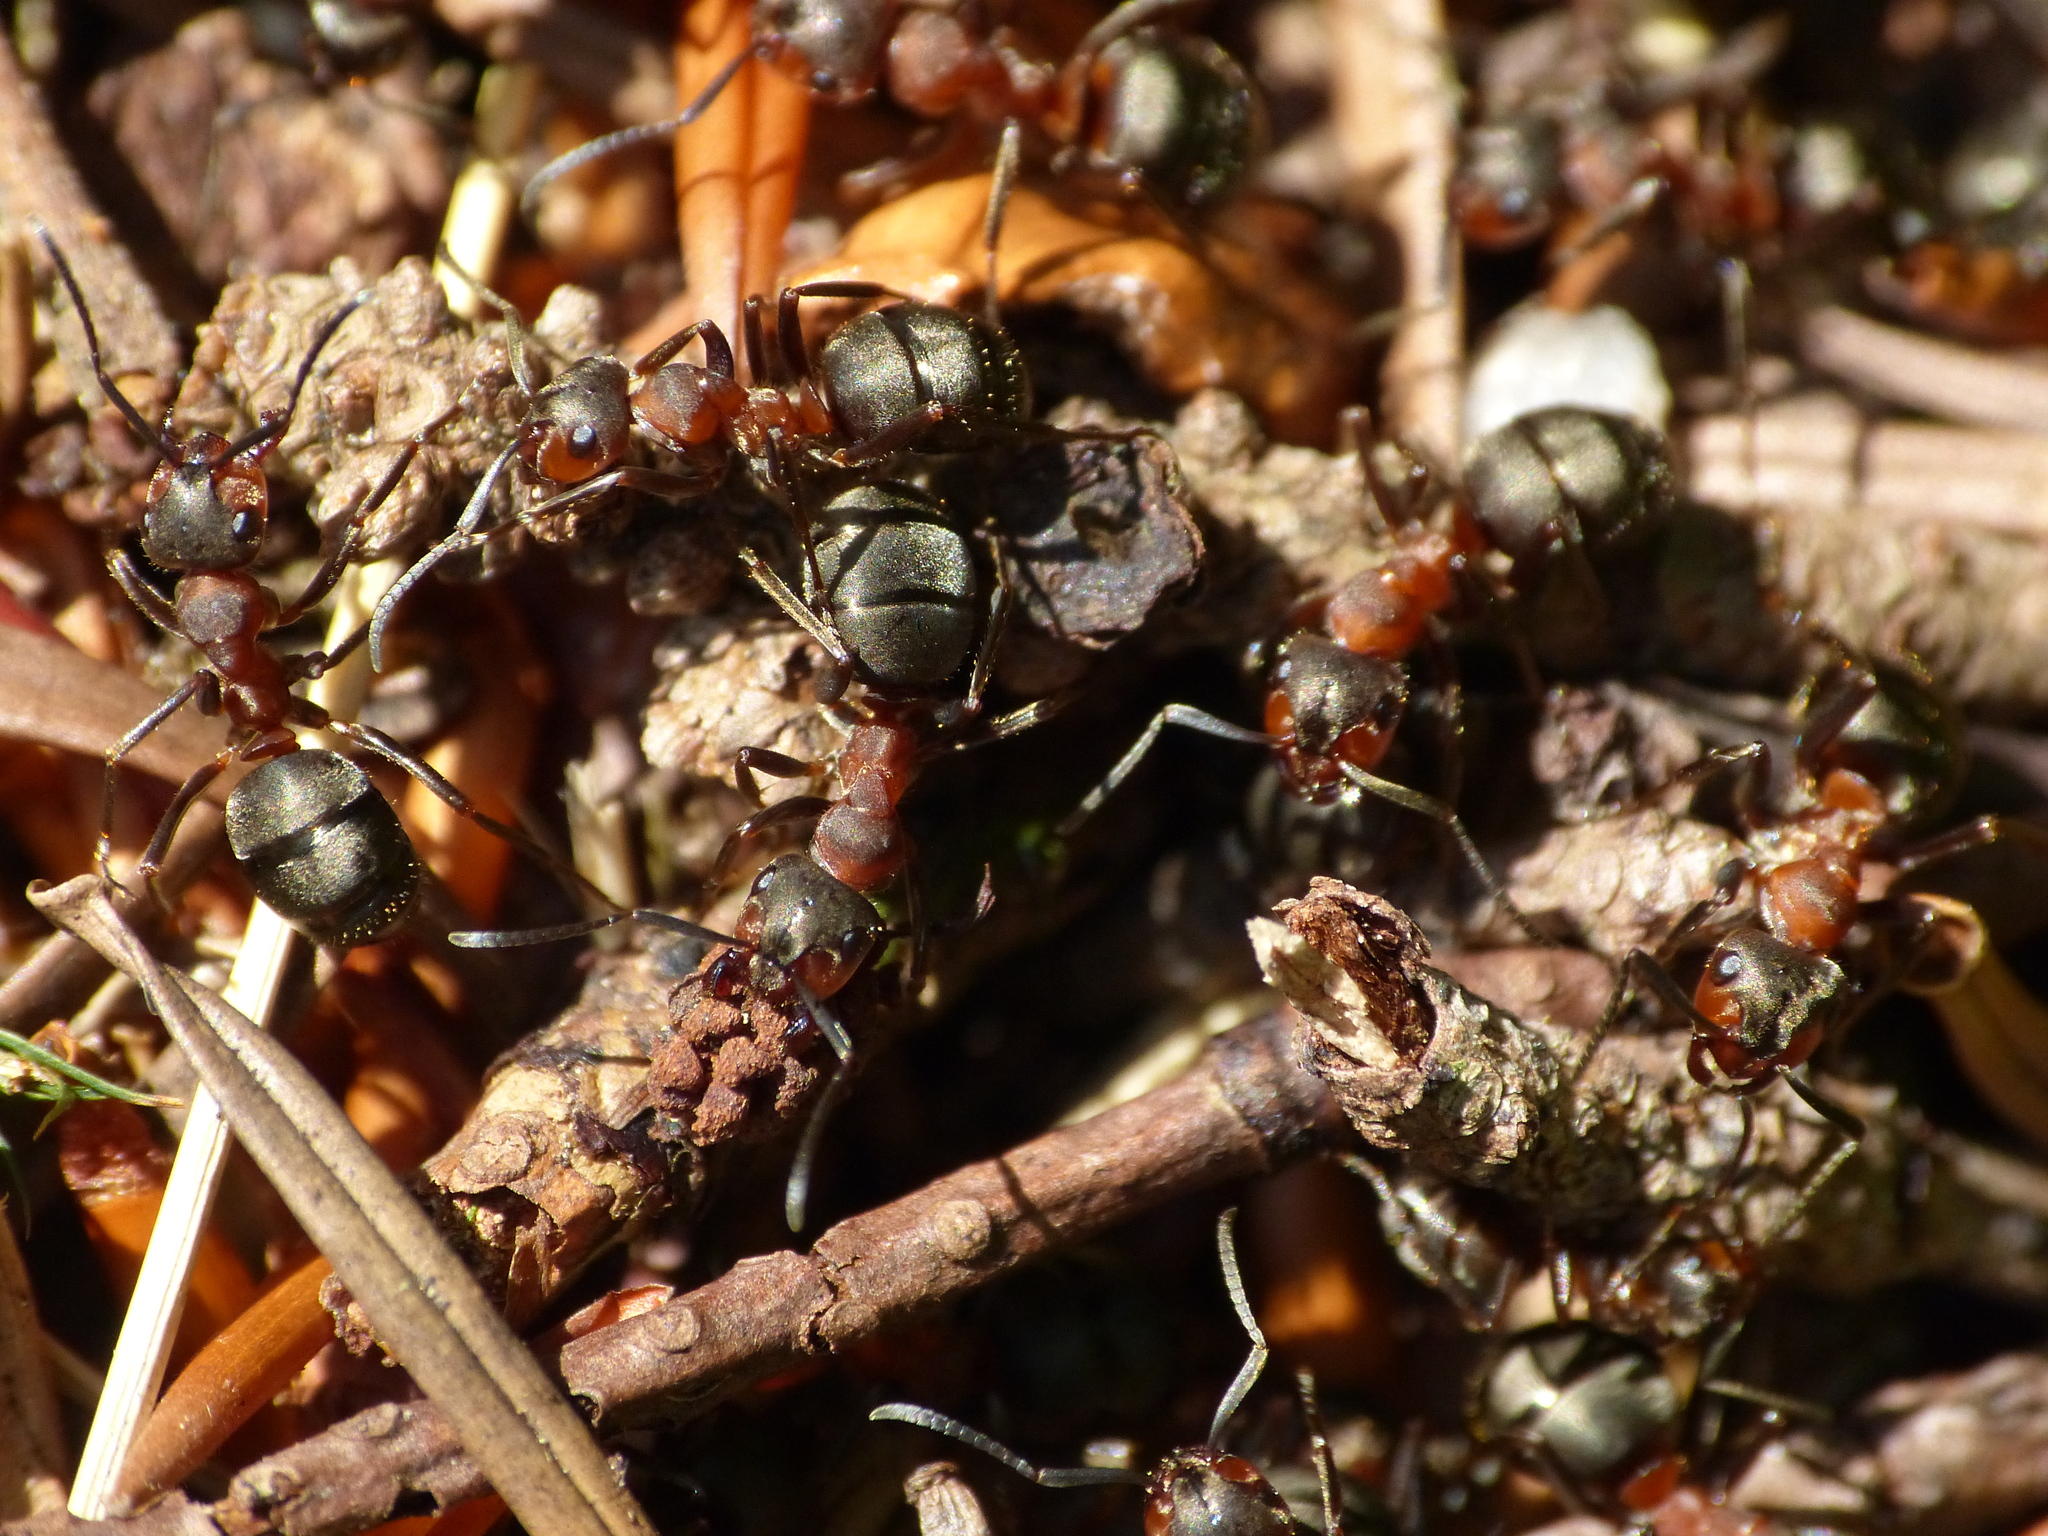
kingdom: Animalia
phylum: Arthropoda
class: Insecta
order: Hymenoptera
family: Formicidae
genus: Formica
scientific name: Formica rufa
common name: Red wood ant
